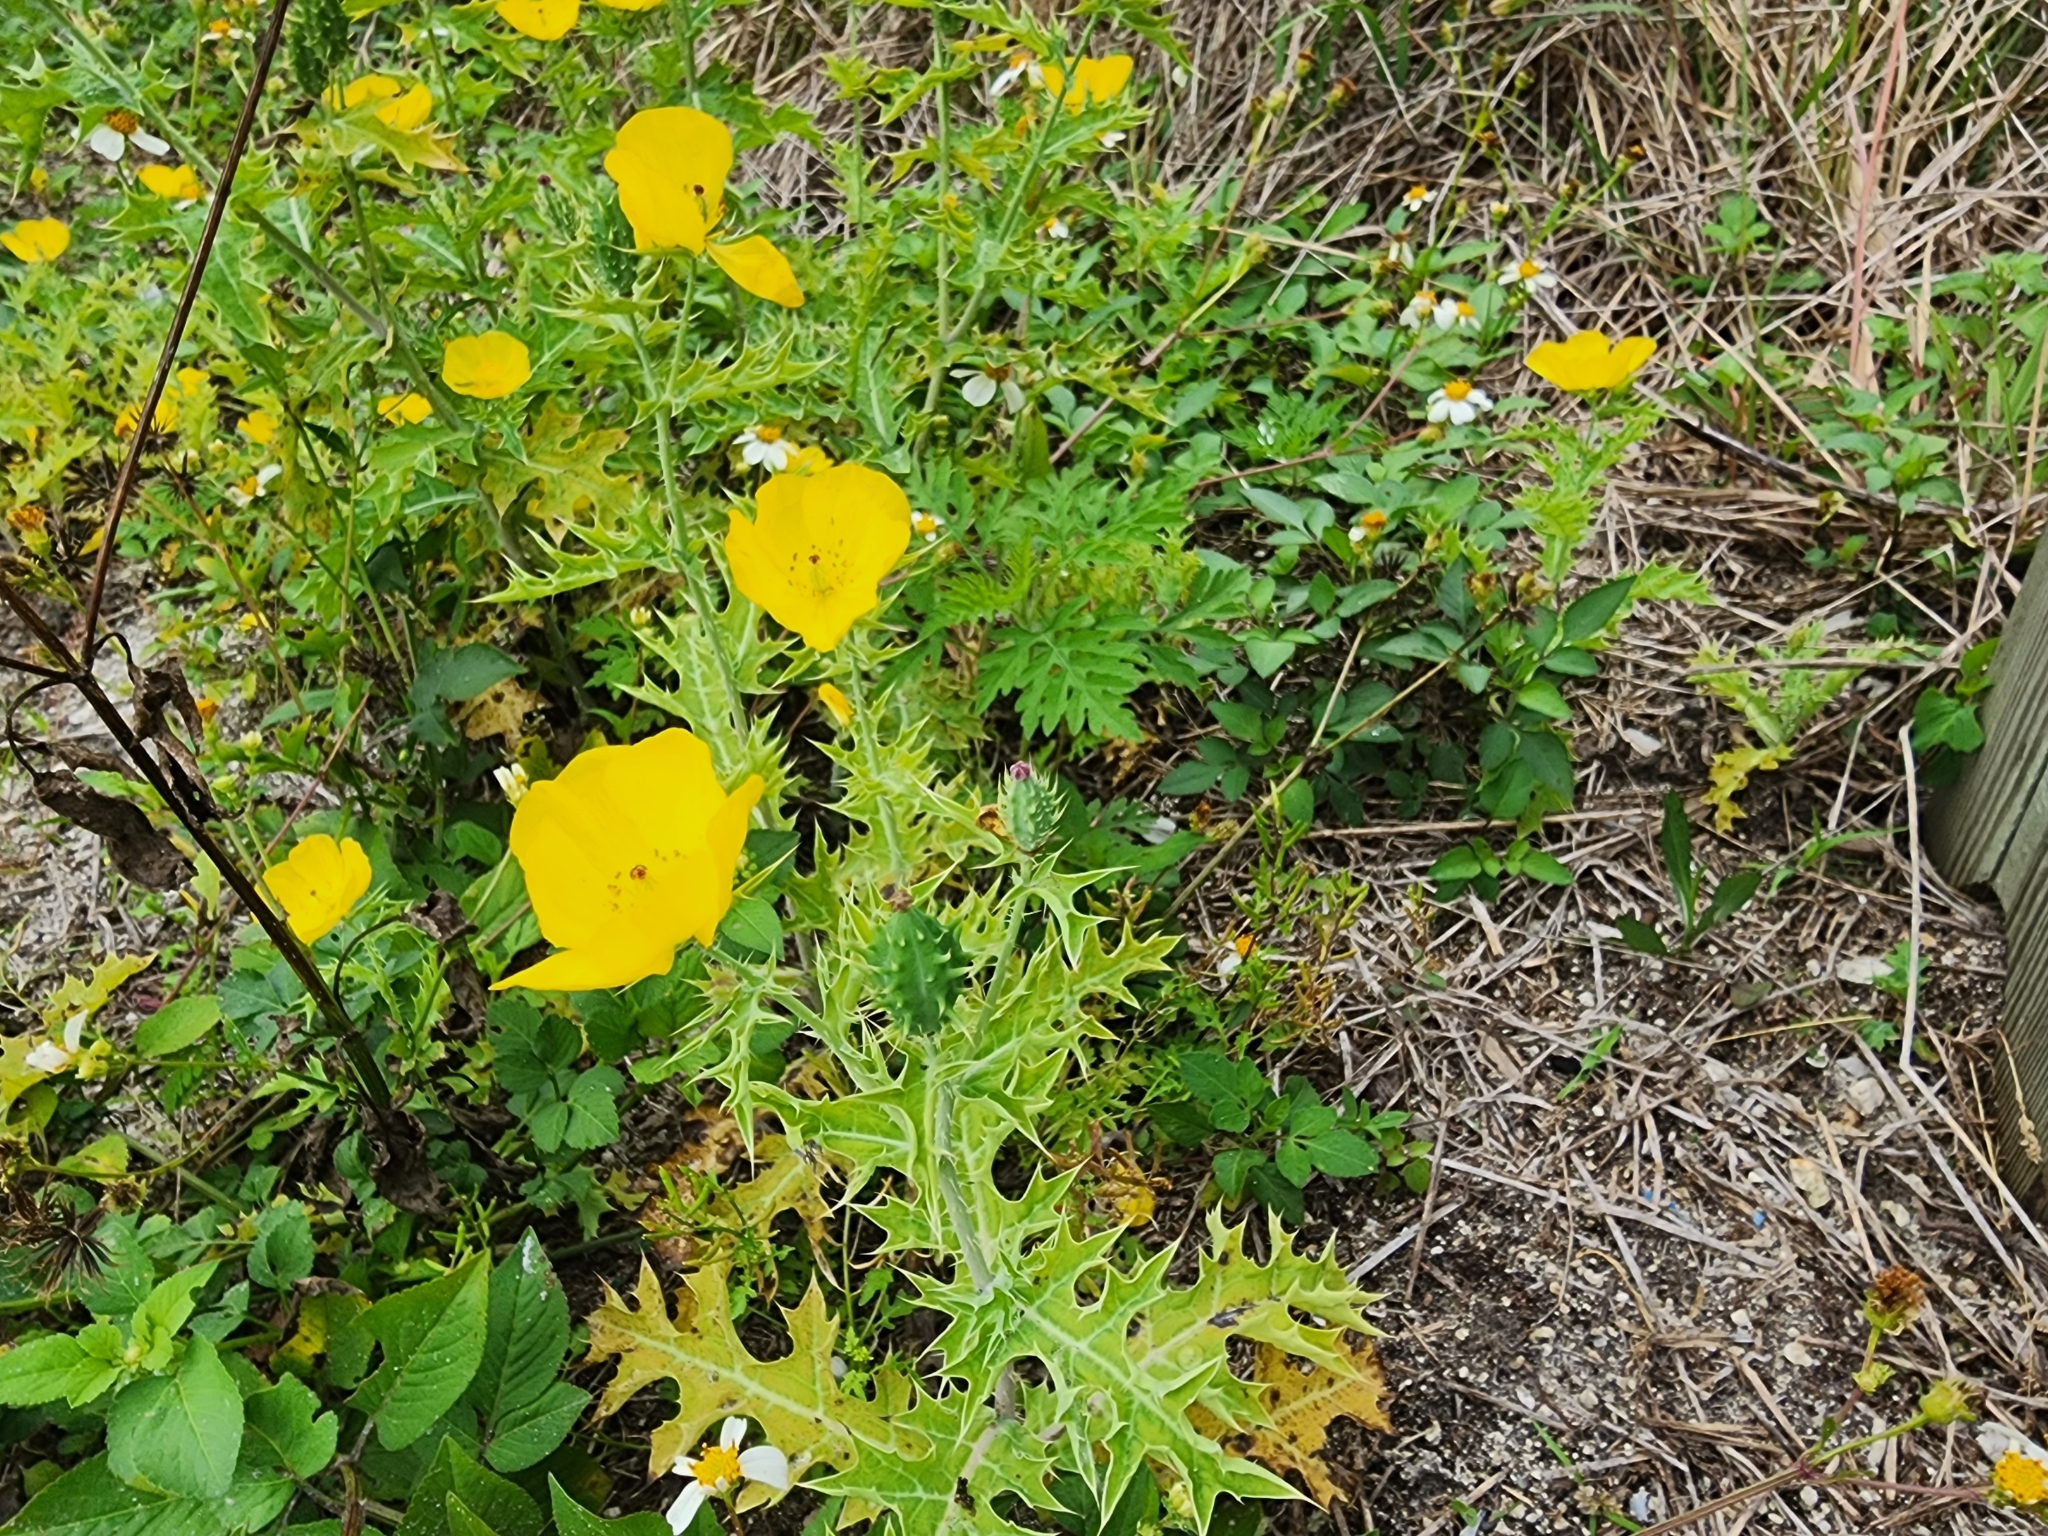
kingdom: Plantae
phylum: Tracheophyta
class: Magnoliopsida
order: Ranunculales
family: Papaveraceae
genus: Argemone
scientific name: Argemone mexicana
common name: Mexican poppy
